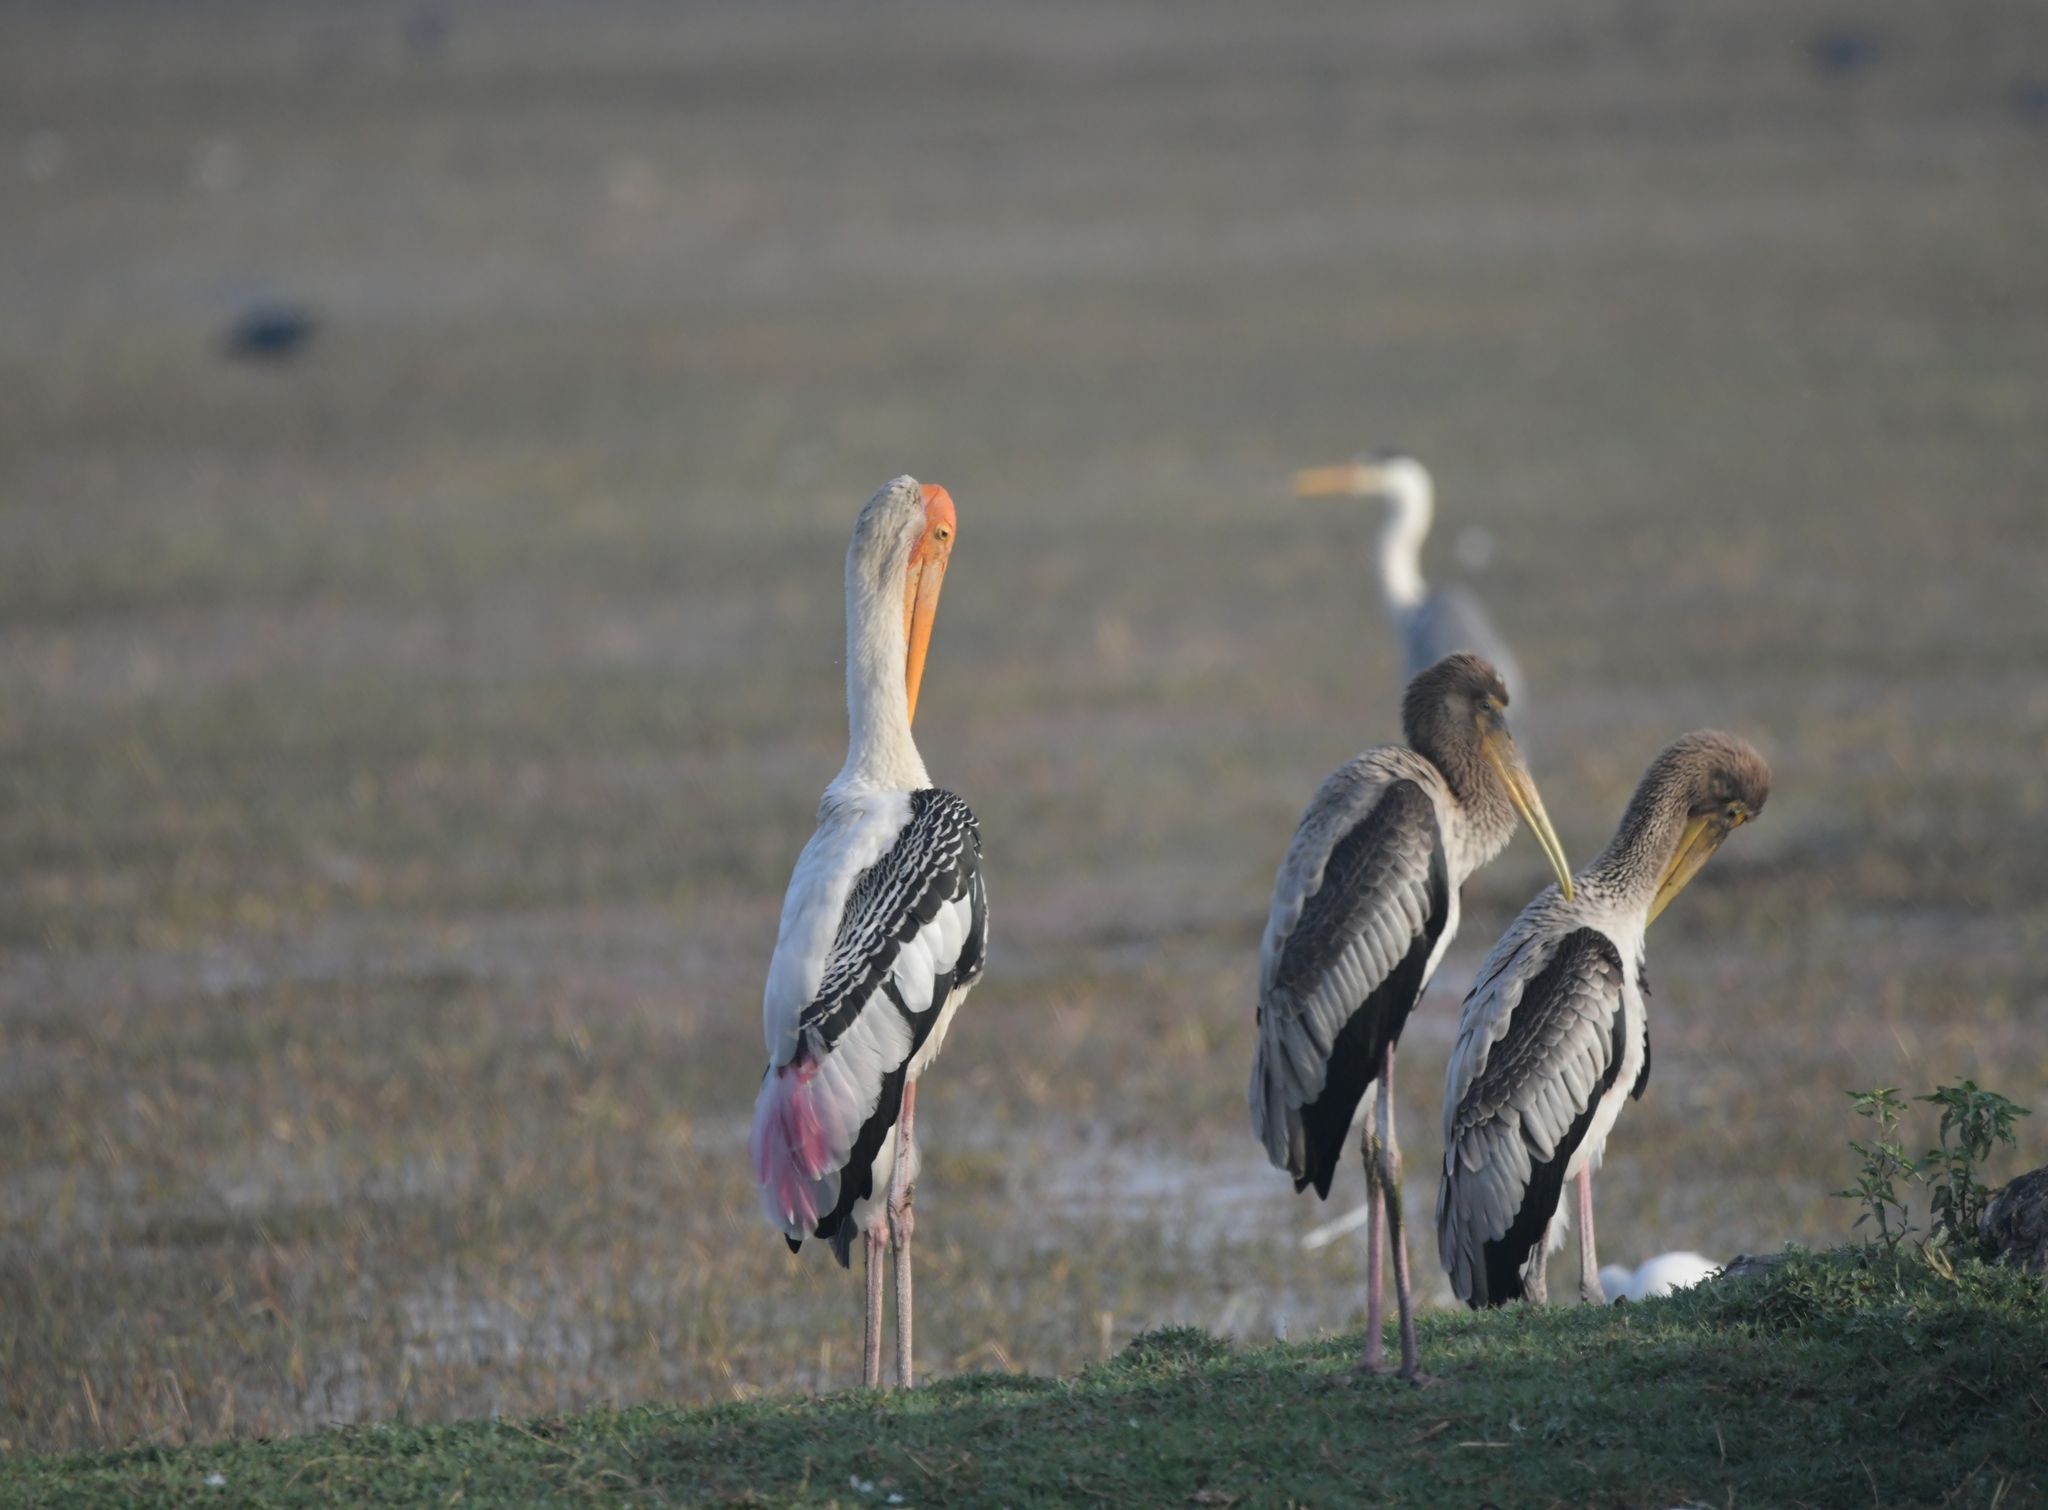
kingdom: Animalia
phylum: Chordata
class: Aves
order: Ciconiiformes
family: Ciconiidae
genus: Mycteria
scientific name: Mycteria leucocephala
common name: Painted stork
